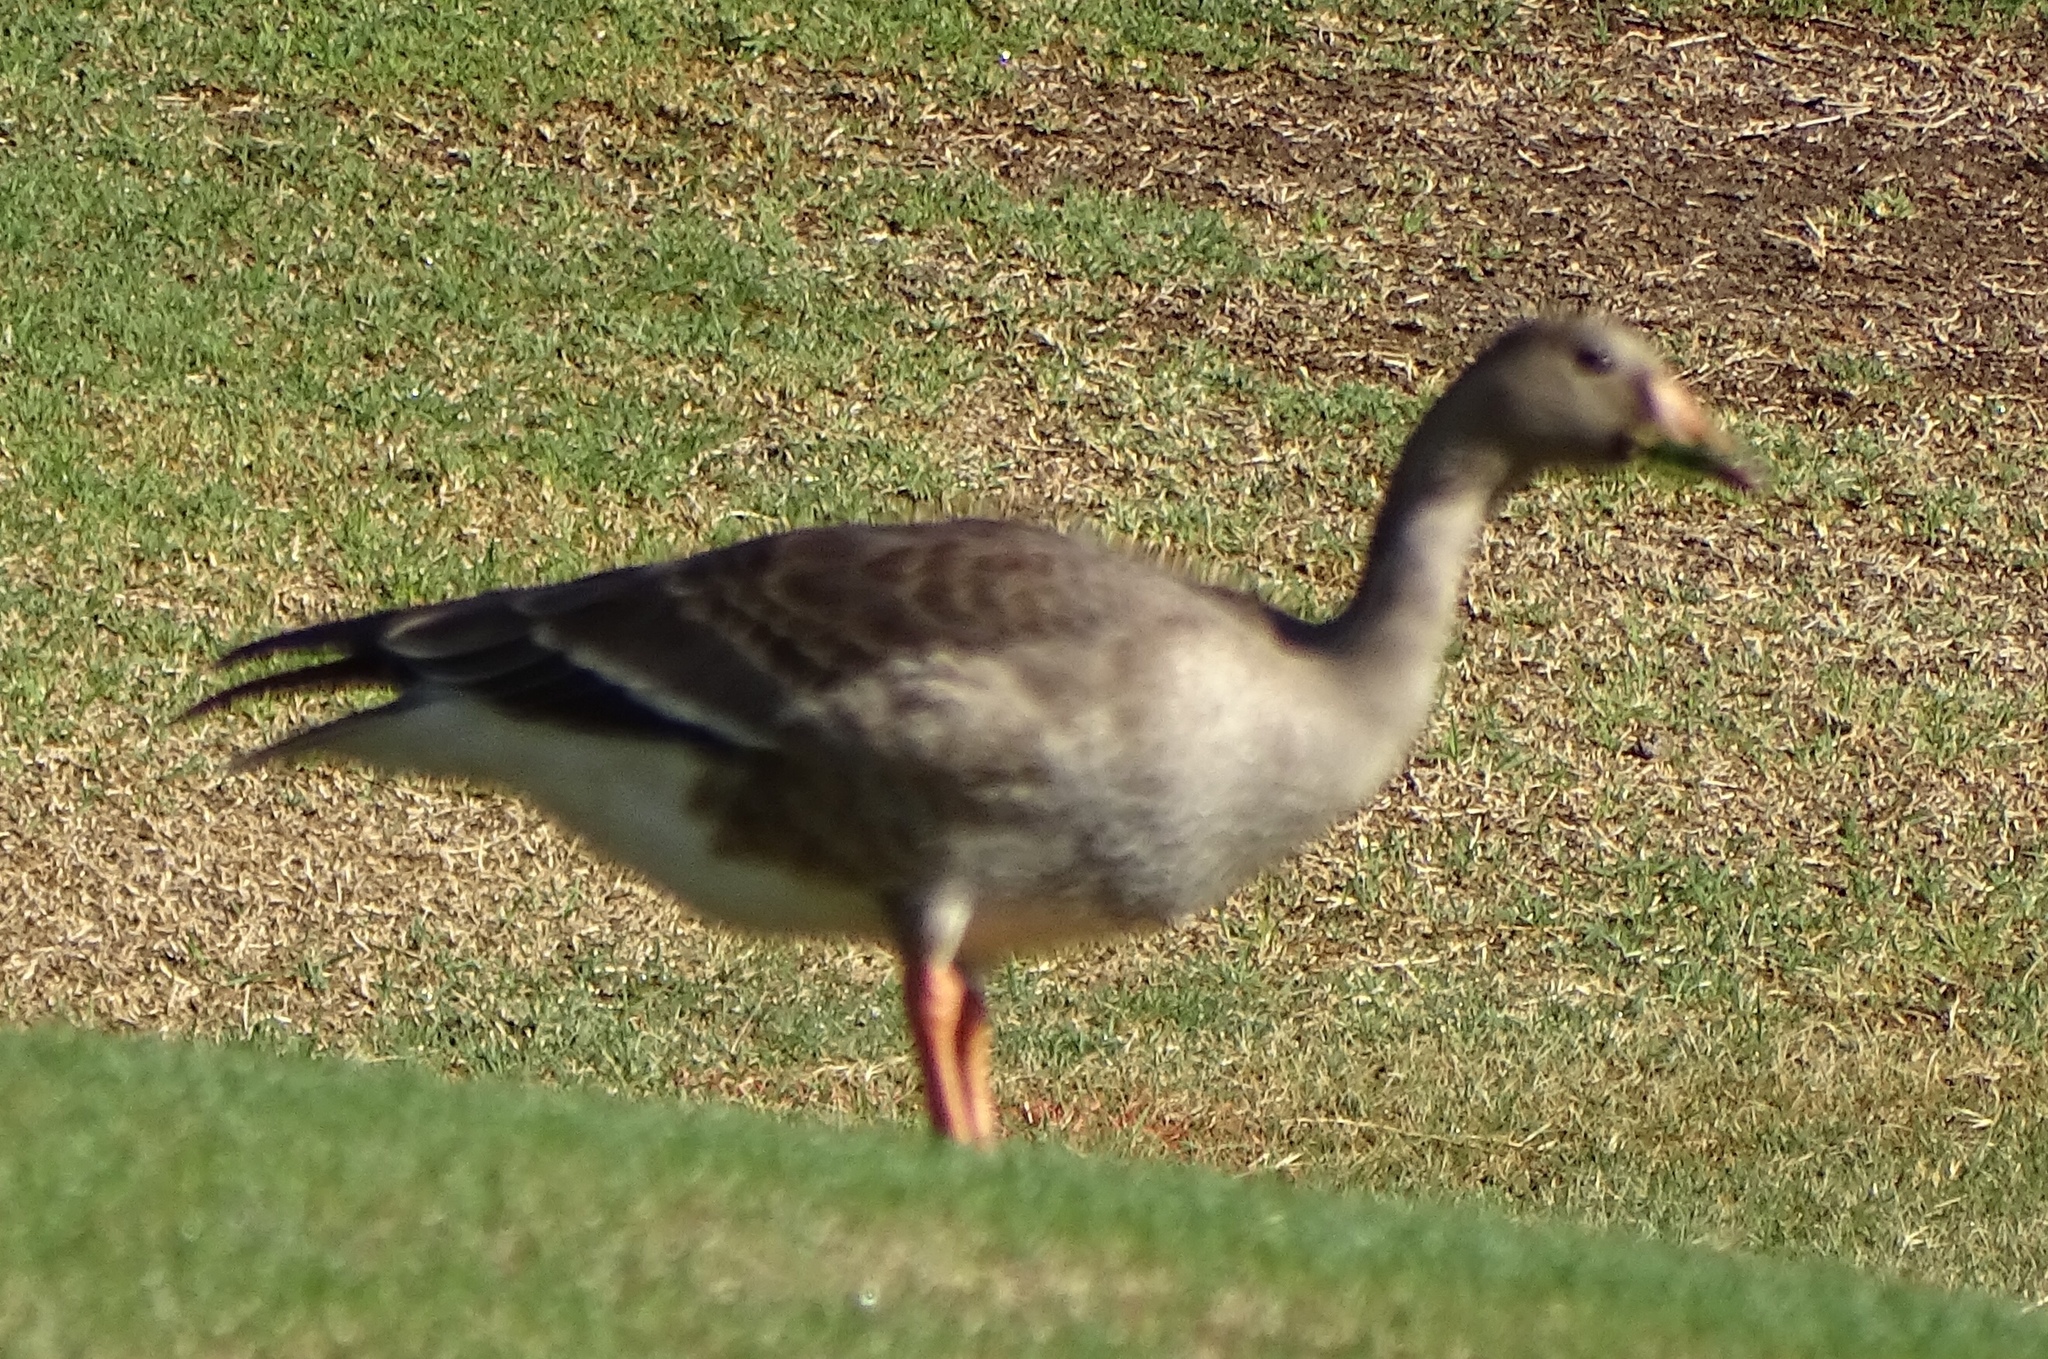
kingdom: Animalia
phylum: Chordata
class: Aves
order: Anseriformes
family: Anatidae
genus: Anser
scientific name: Anser albifrons
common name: Greater white-fronted goose
